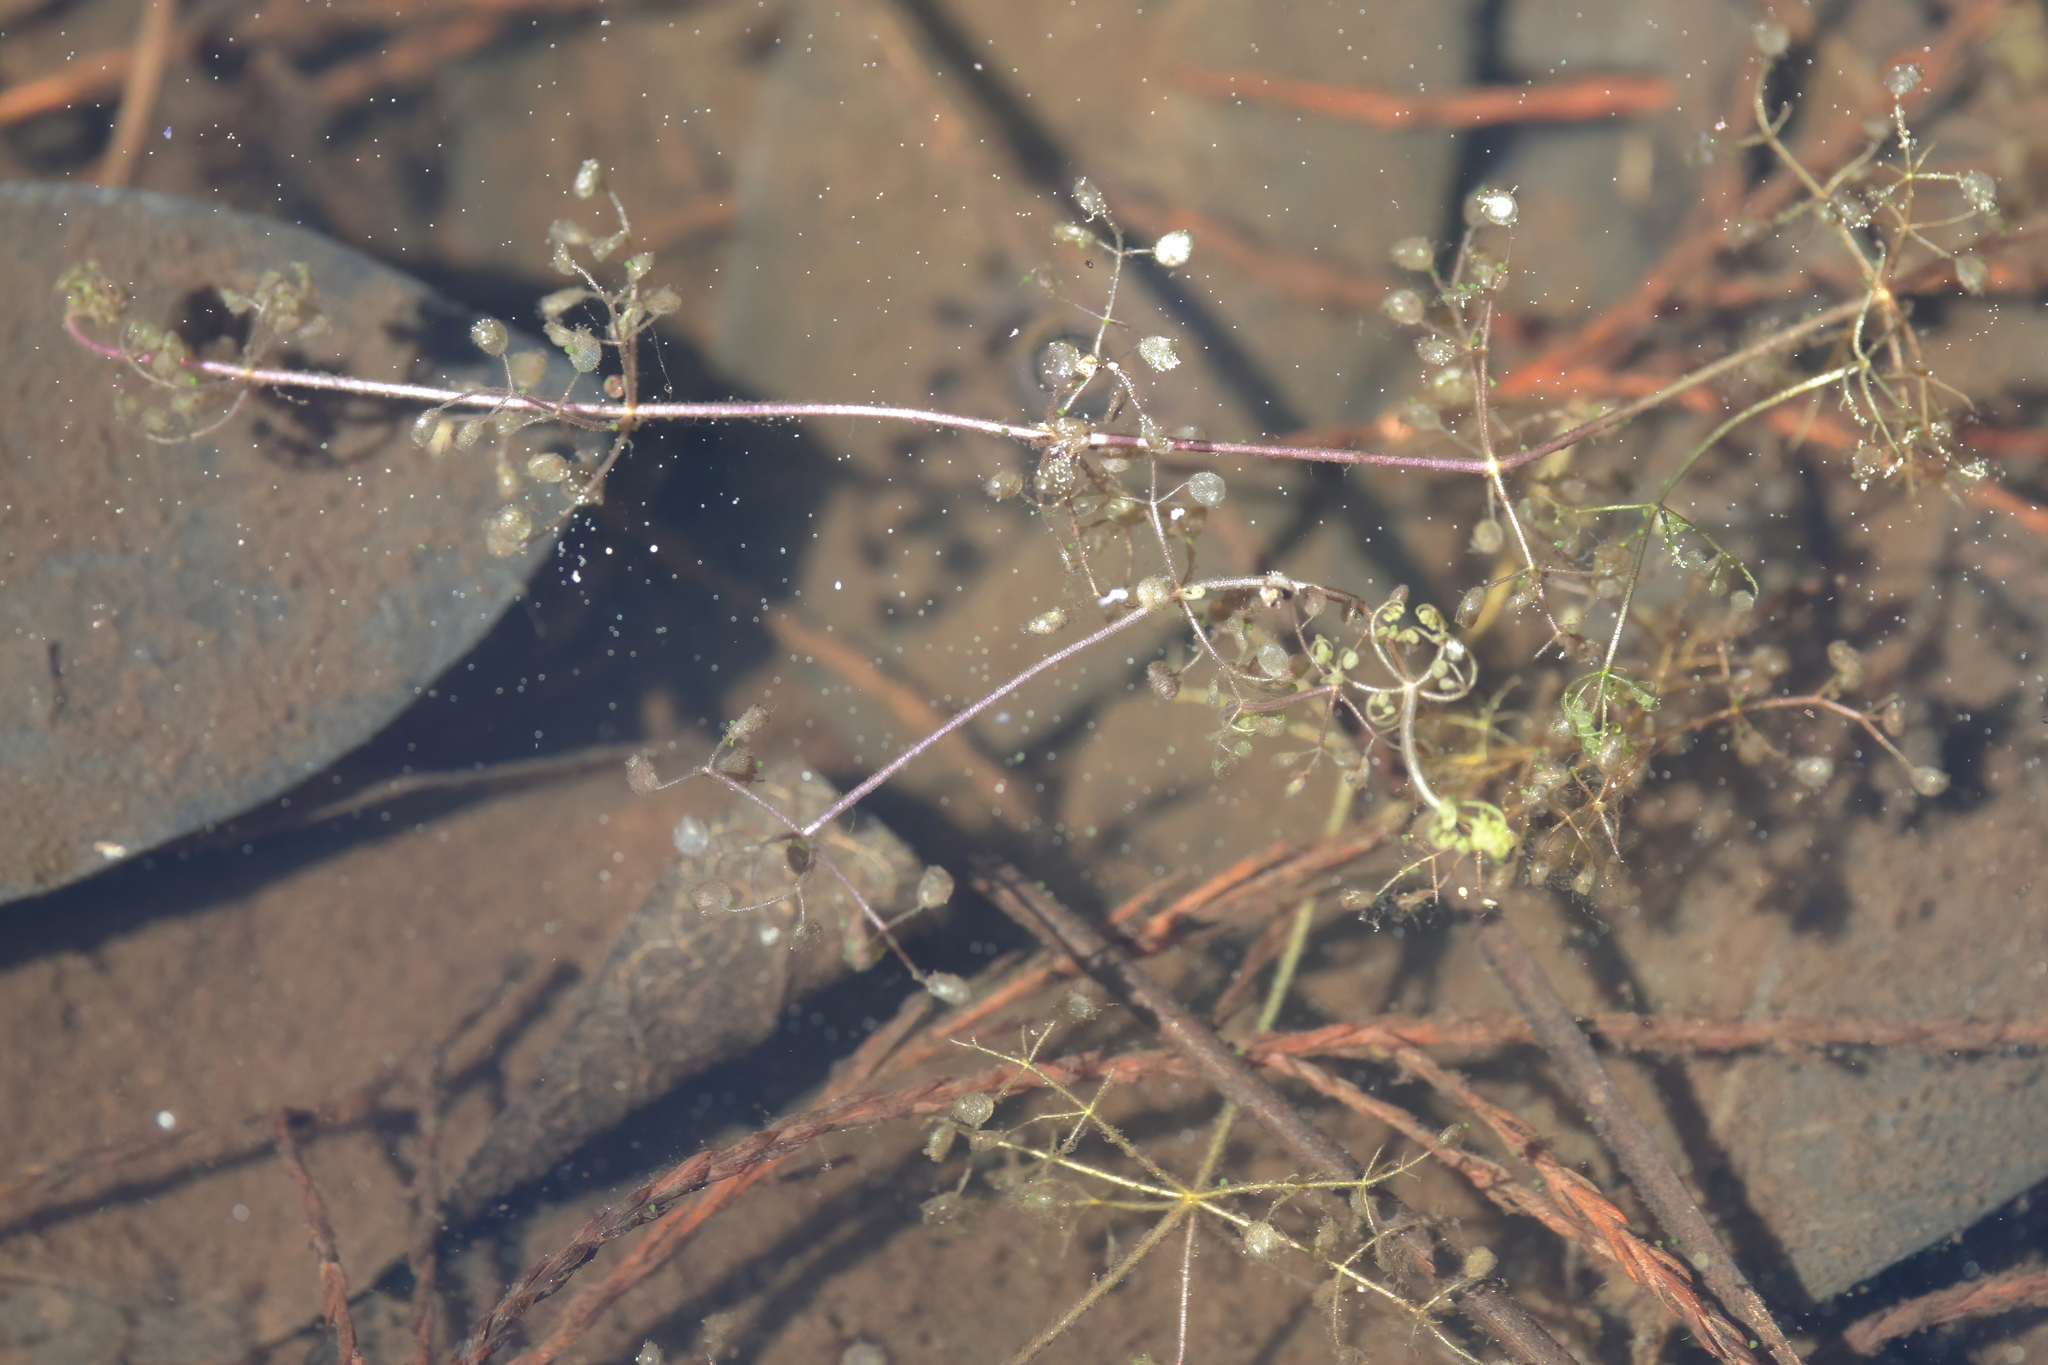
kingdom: Plantae
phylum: Tracheophyta
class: Magnoliopsida
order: Lamiales
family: Lentibulariaceae
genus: Utricularia
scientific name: Utricularia purpurea
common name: Eastern purple bladderwort
